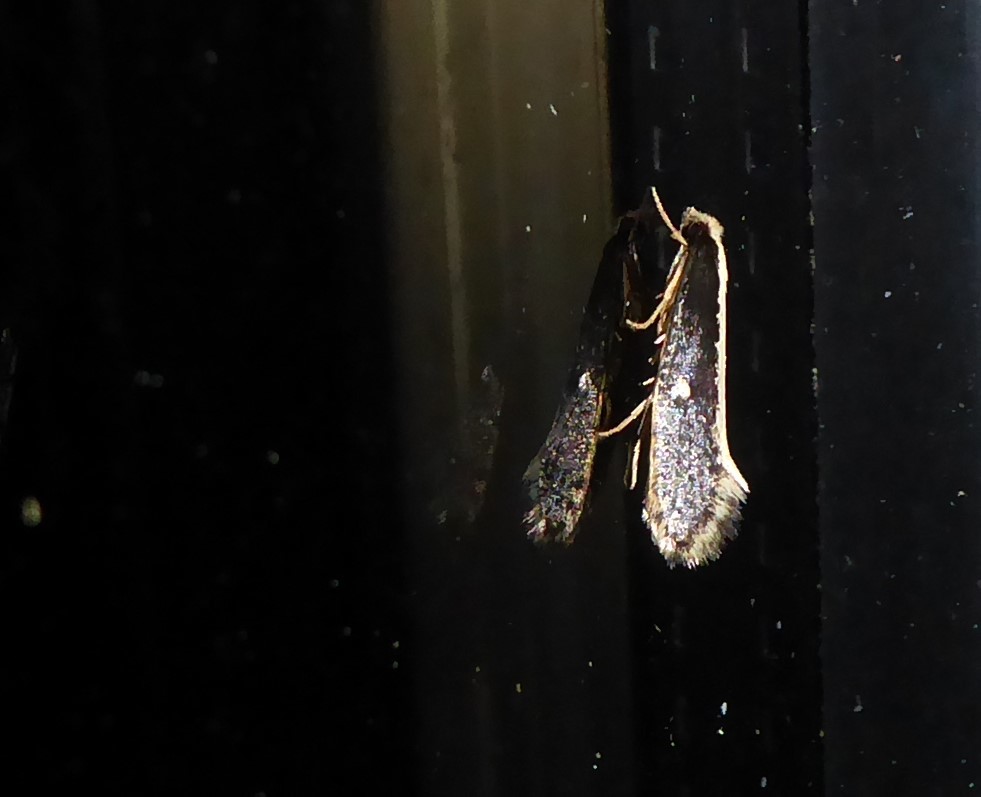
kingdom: Animalia
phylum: Arthropoda
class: Insecta
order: Lepidoptera
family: Tineidae
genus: Monopis
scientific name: Monopis ethelella
